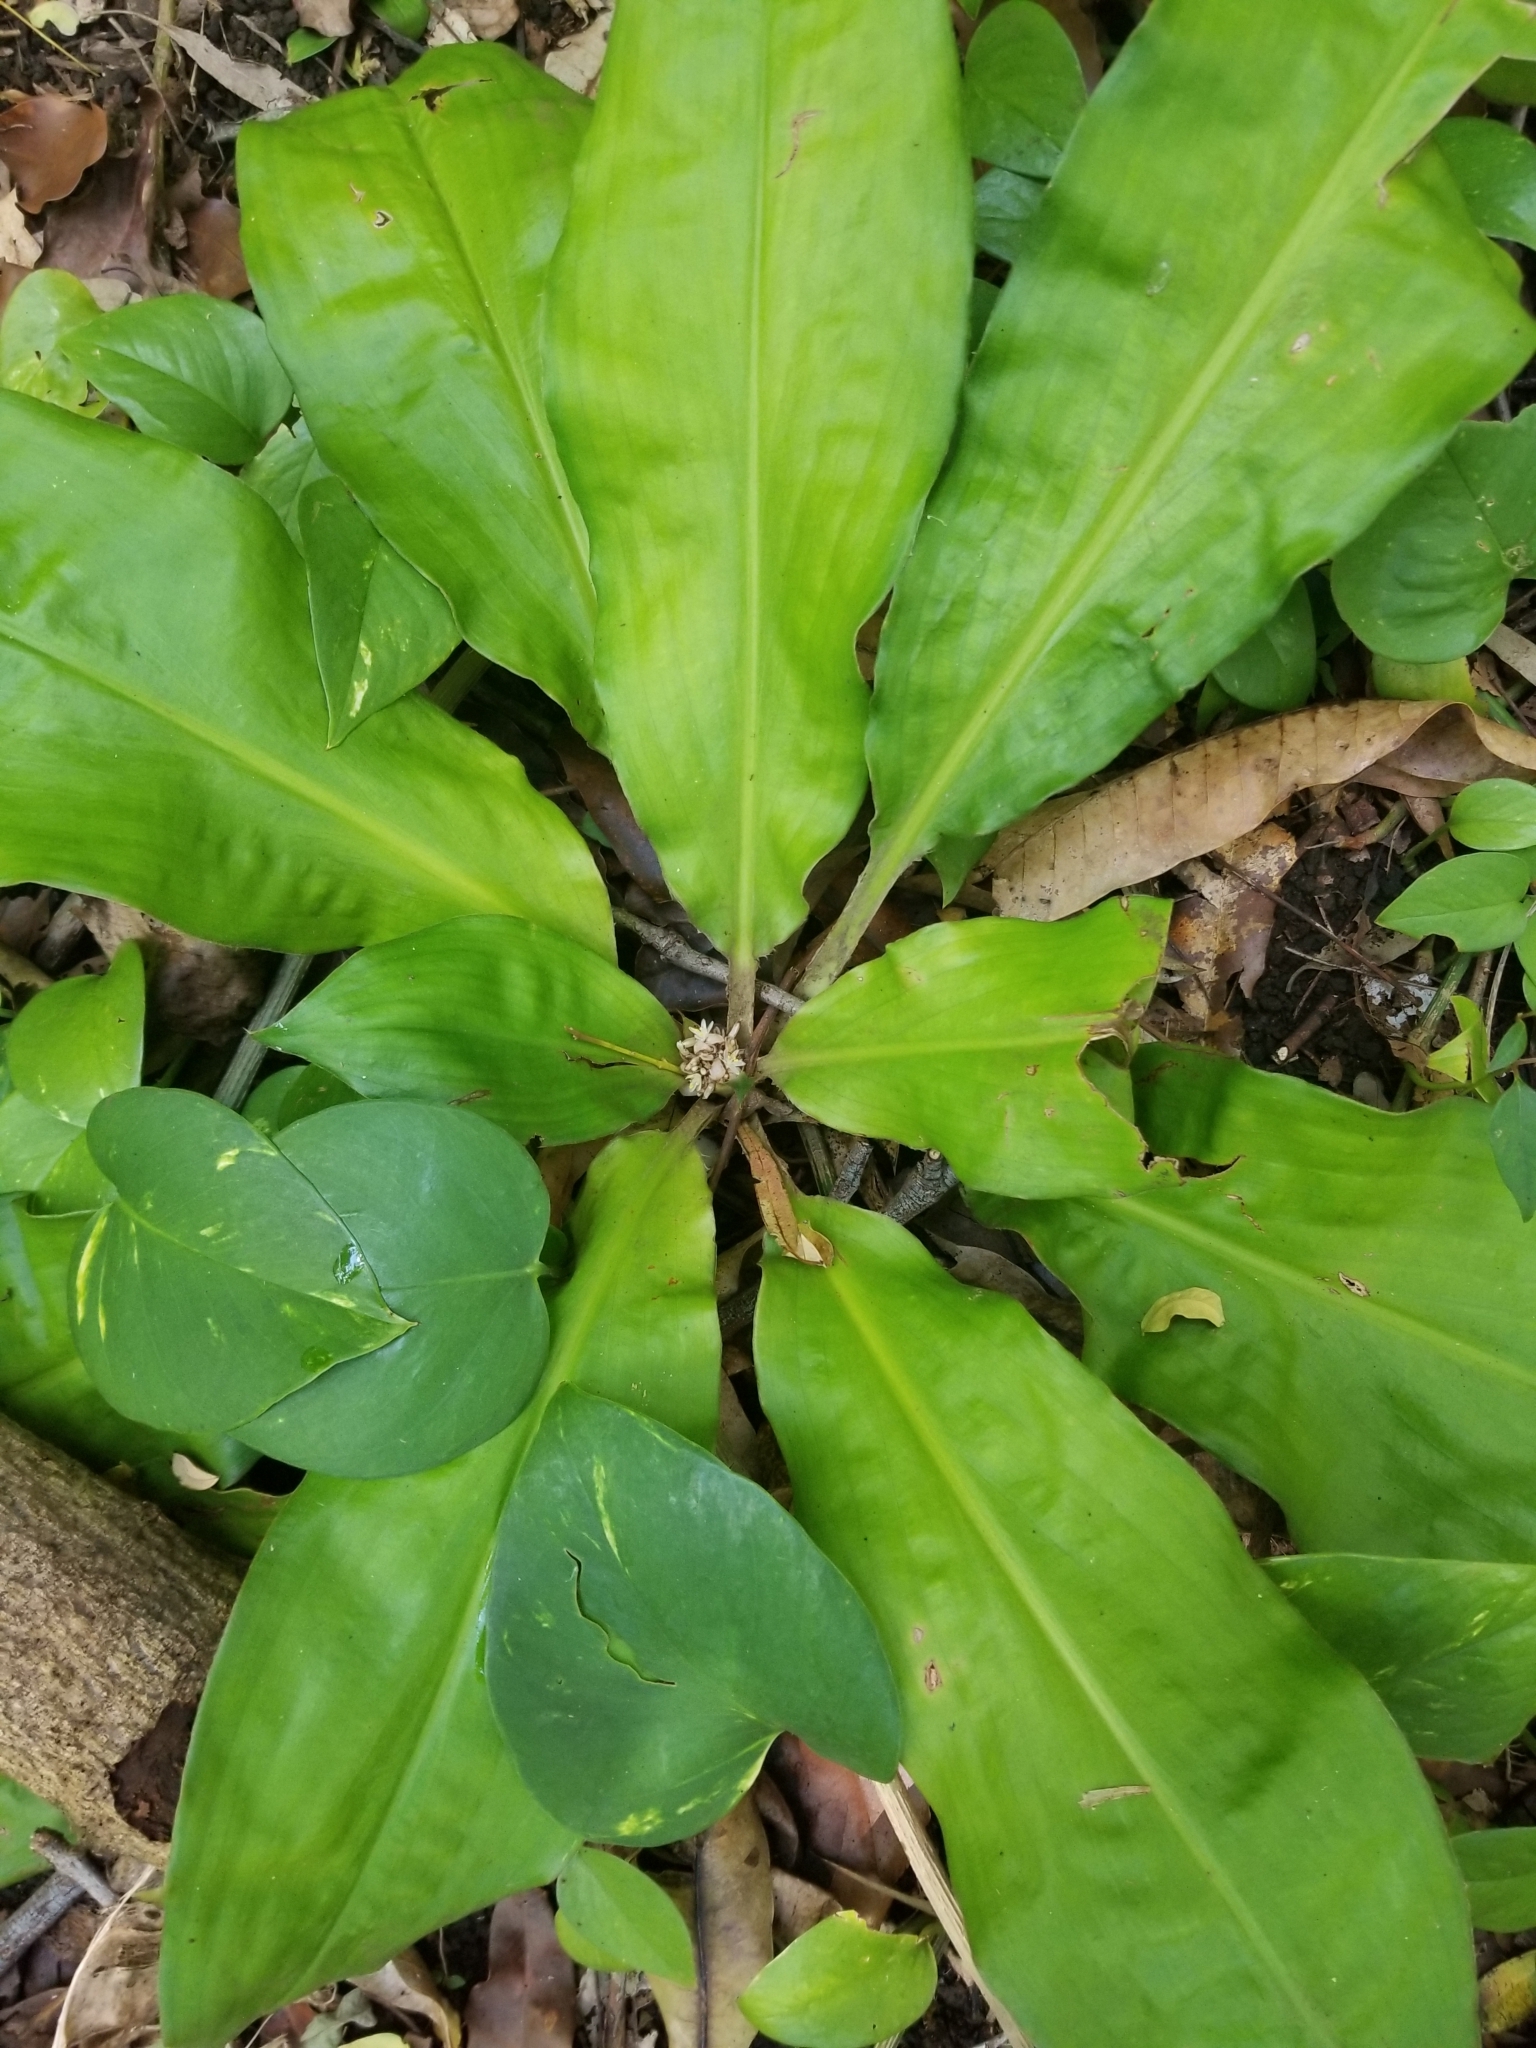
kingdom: Plantae
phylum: Tracheophyta
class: Liliopsida
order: Commelinales
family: Commelinaceae
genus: Palisota
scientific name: Palisota bracteosa
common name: Palisota
